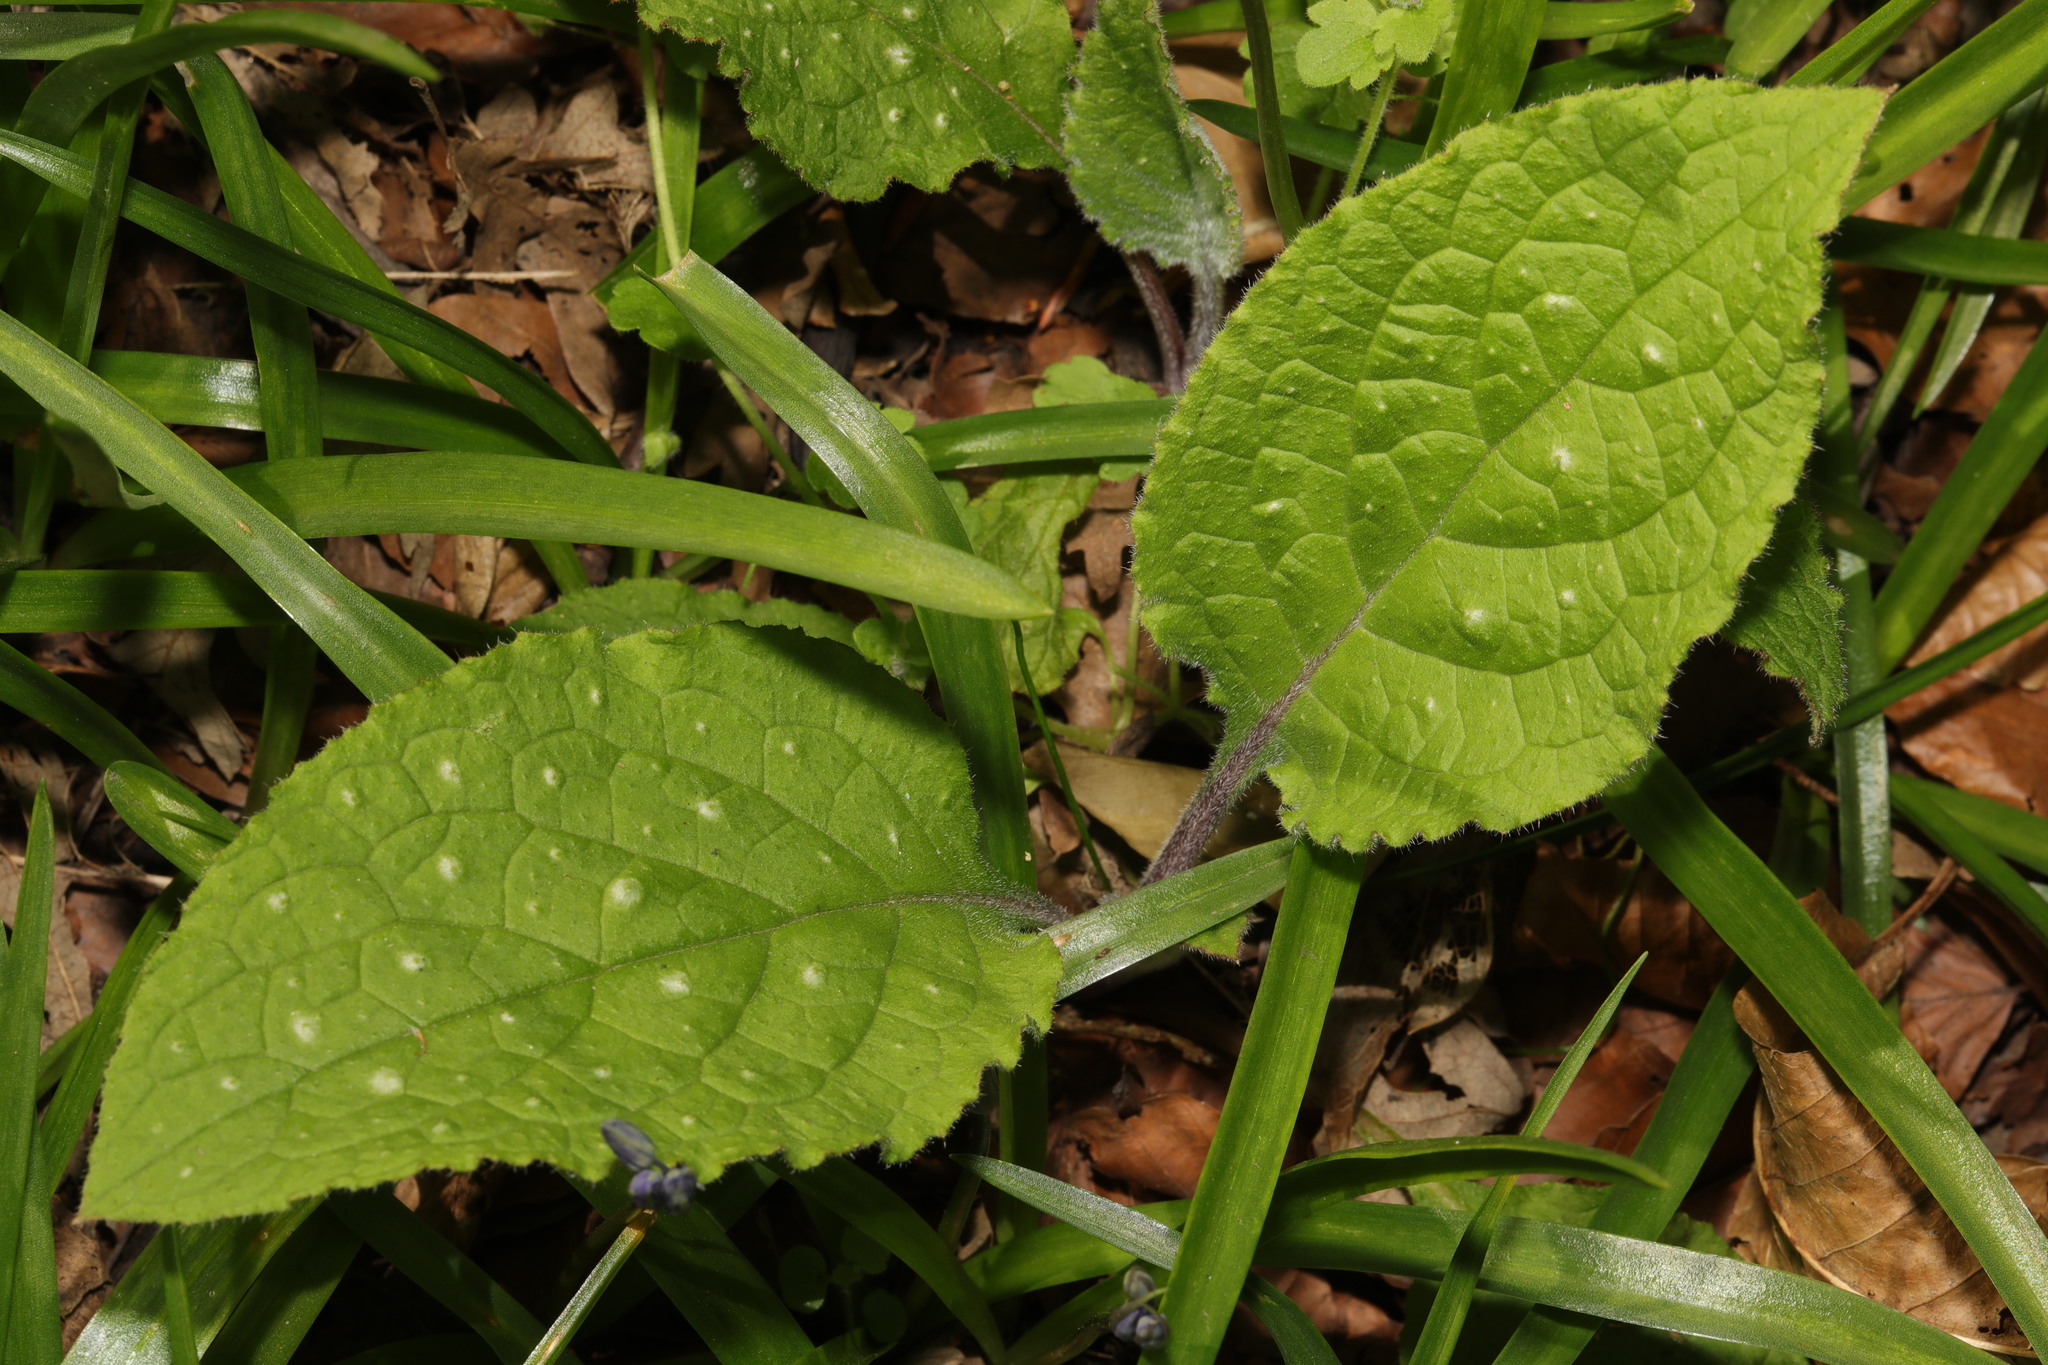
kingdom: Plantae
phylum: Tracheophyta
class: Magnoliopsida
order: Boraginales
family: Boraginaceae
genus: Pentaglottis
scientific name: Pentaglottis sempervirens
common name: Green alkanet
